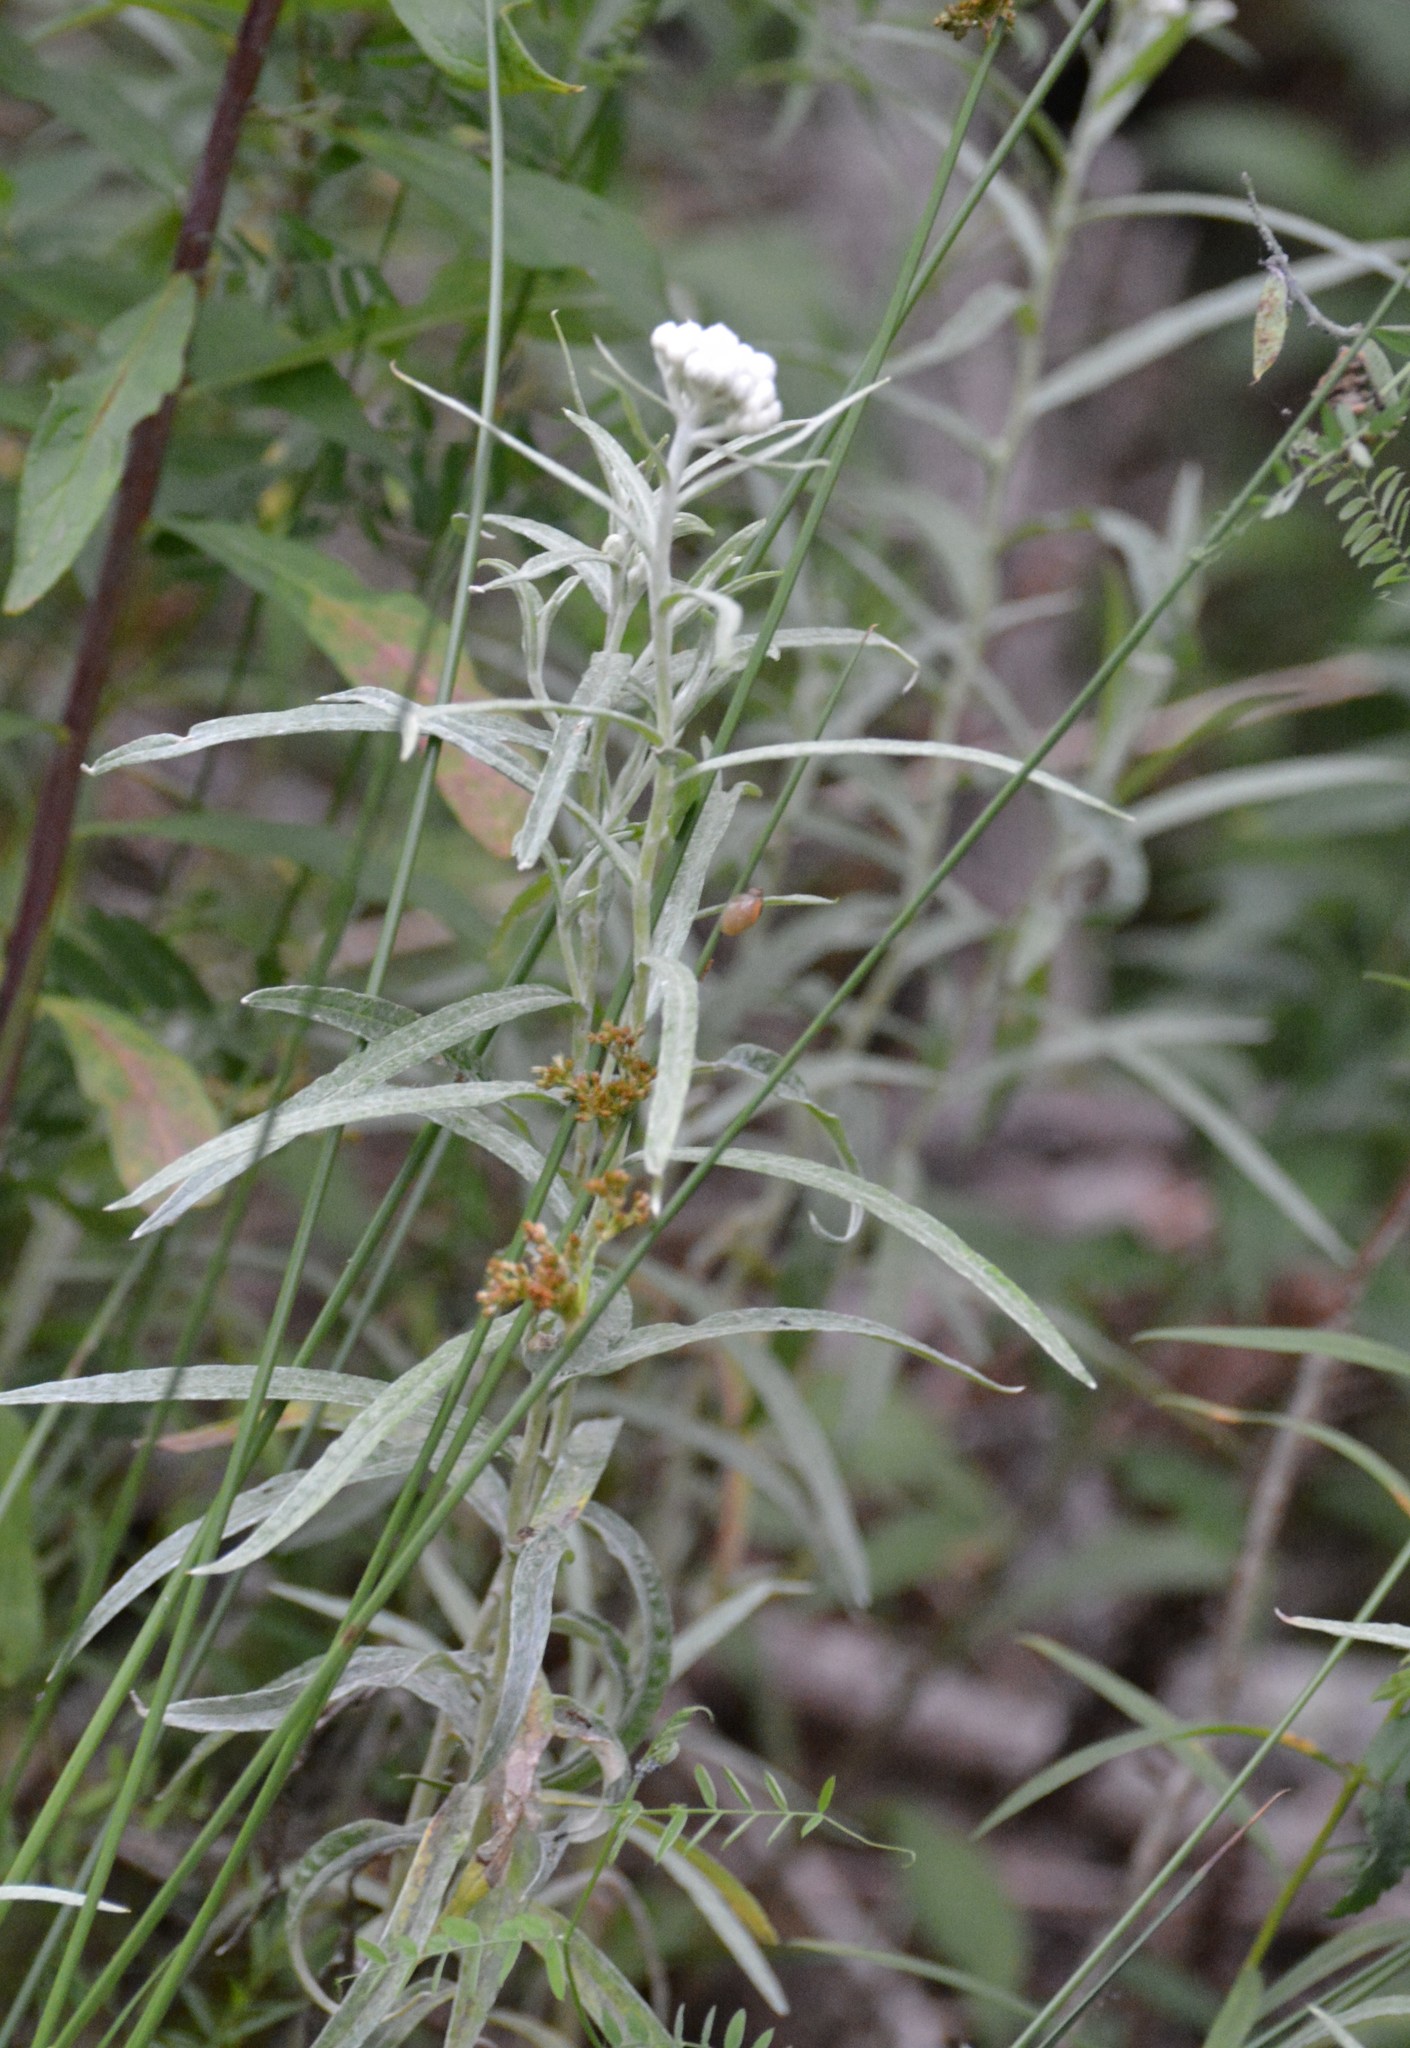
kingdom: Plantae
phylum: Tracheophyta
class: Magnoliopsida
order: Asterales
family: Asteraceae
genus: Anaphalis
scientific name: Anaphalis margaritacea
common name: Pearly everlasting
